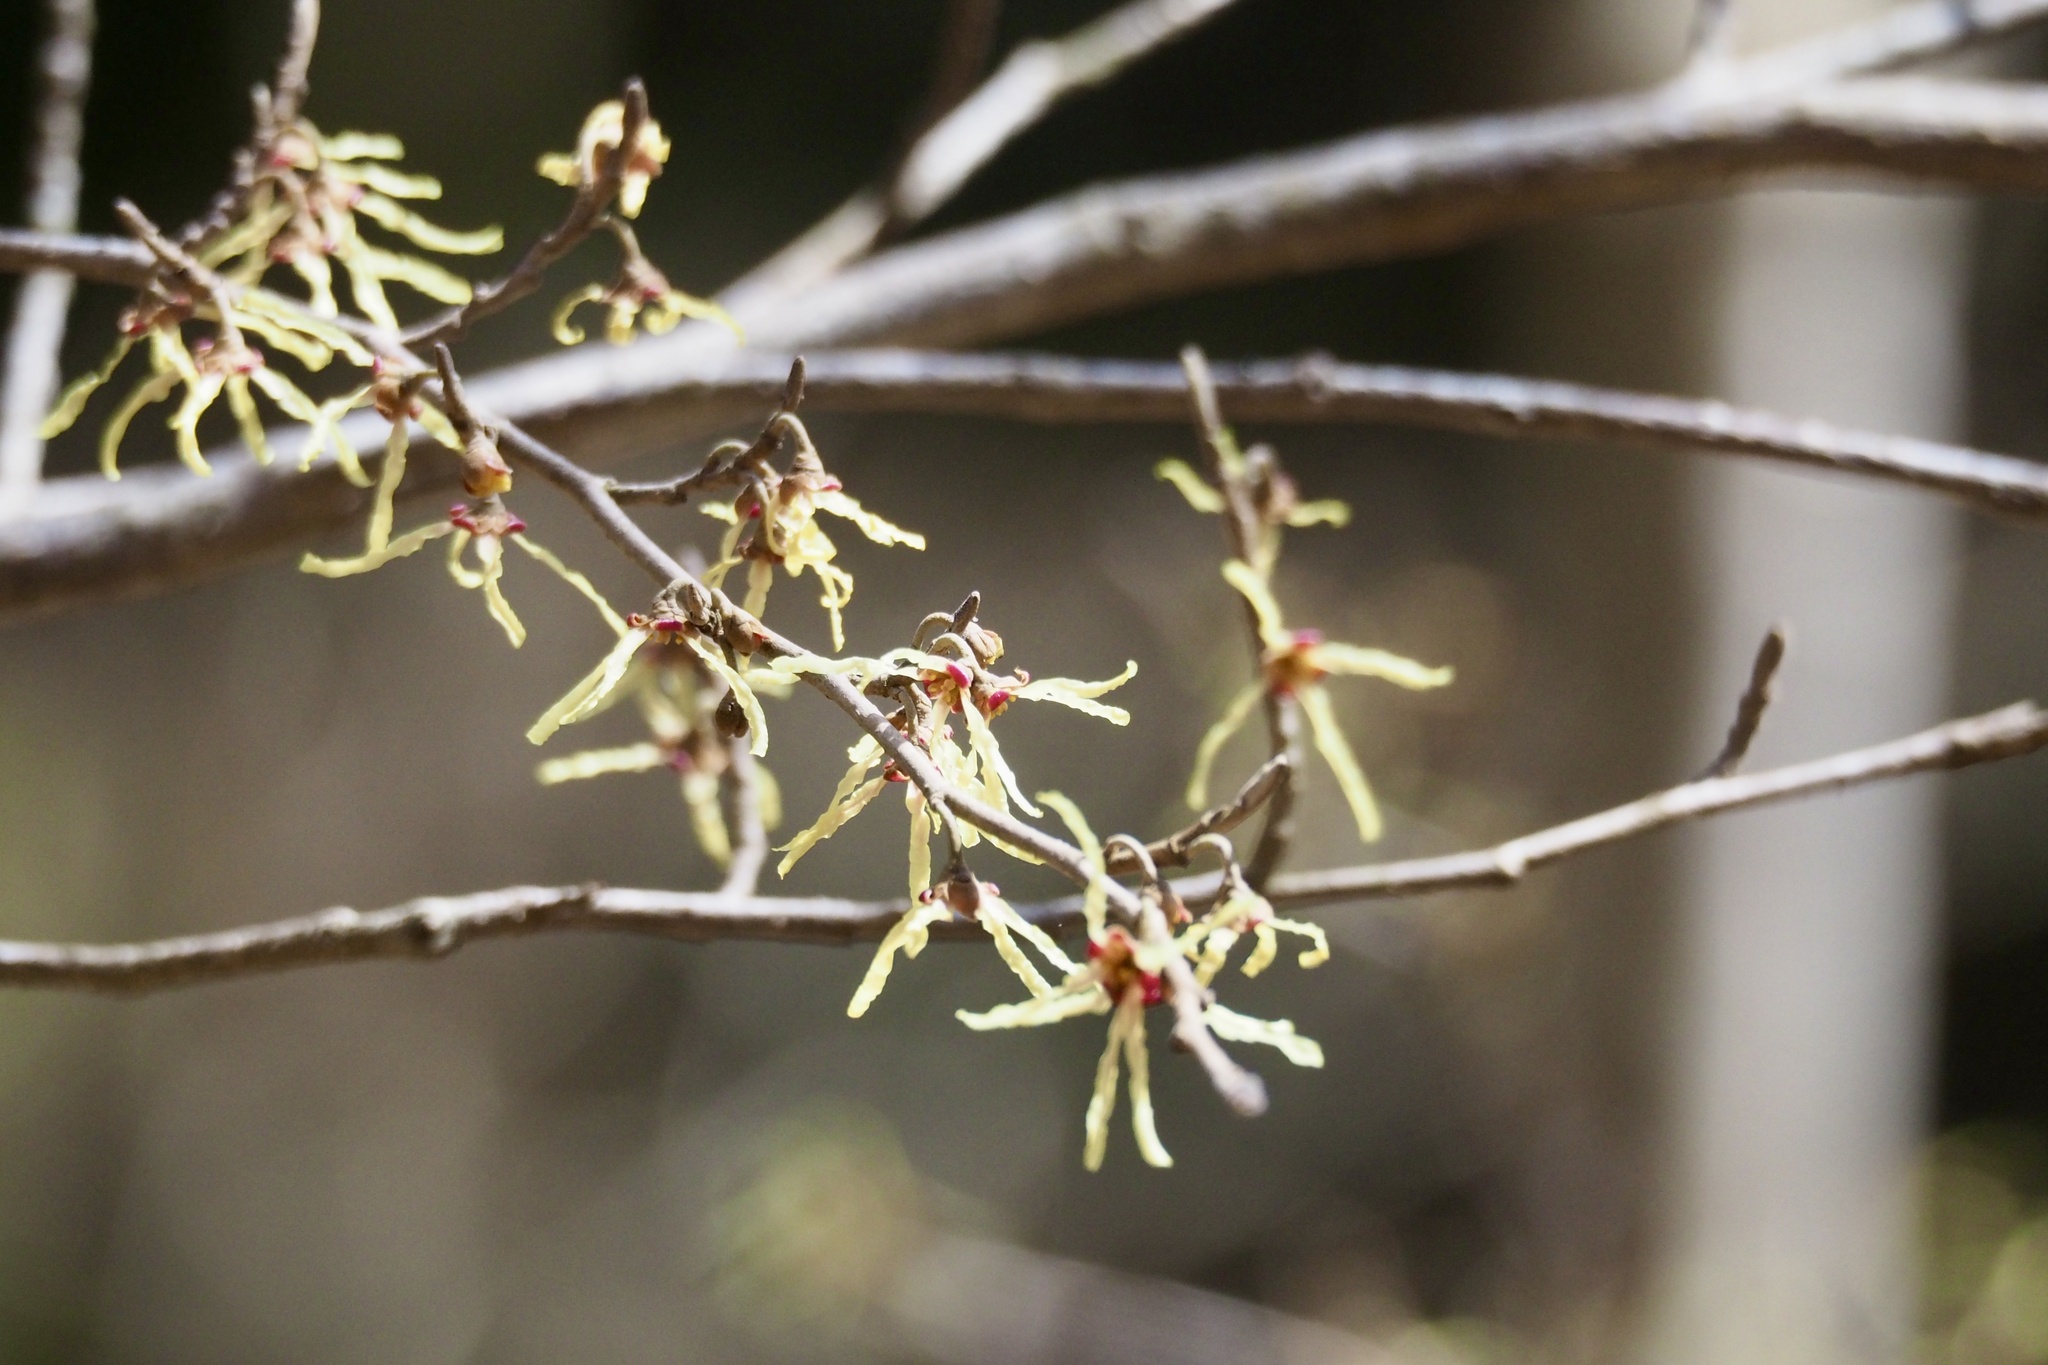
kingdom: Plantae
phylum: Tracheophyta
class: Magnoliopsida
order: Saxifragales
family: Hamamelidaceae
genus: Hamamelis
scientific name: Hamamelis japonica
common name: Japanese witch-hazel
